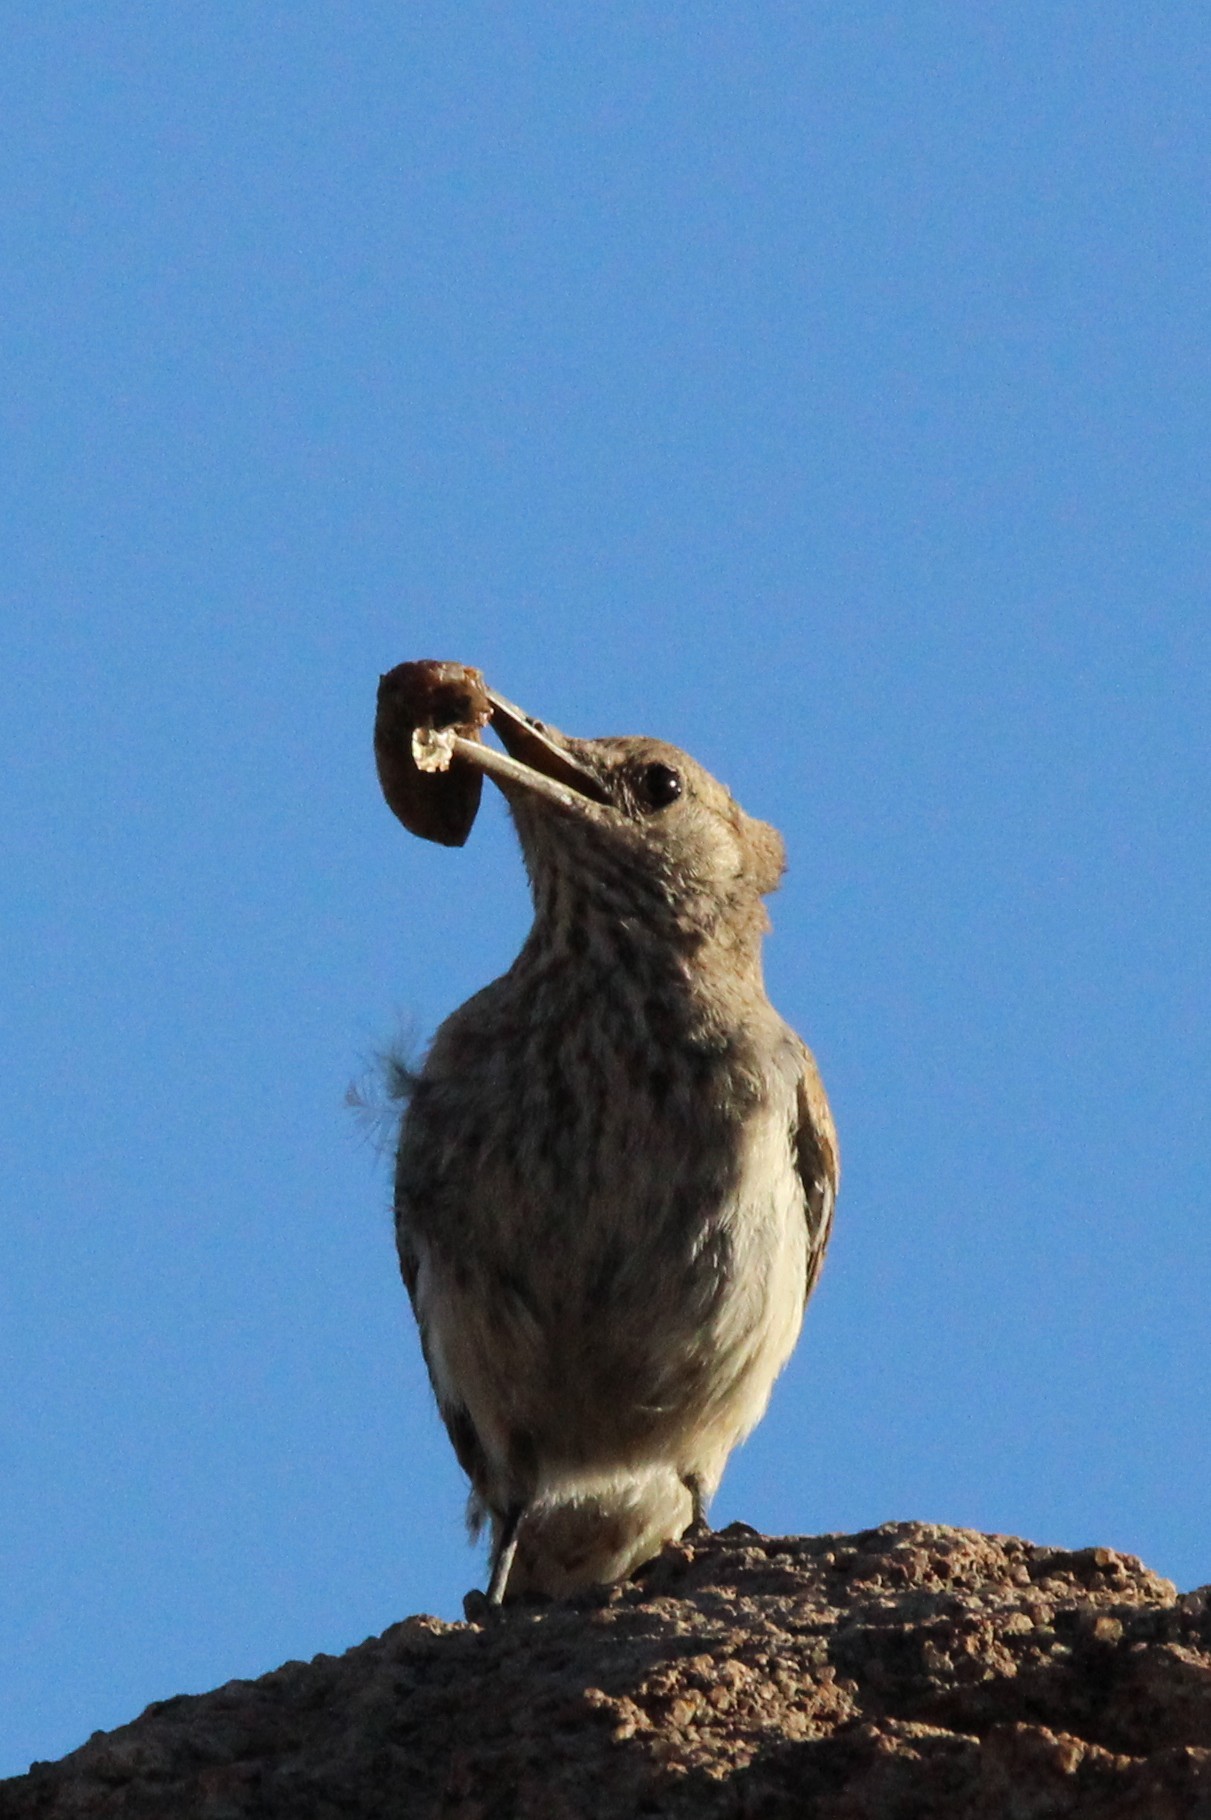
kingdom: Animalia
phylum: Chordata
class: Aves
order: Passeriformes
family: Troglodytidae
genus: Salpinctes
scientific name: Salpinctes obsoletus
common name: Rock wren
